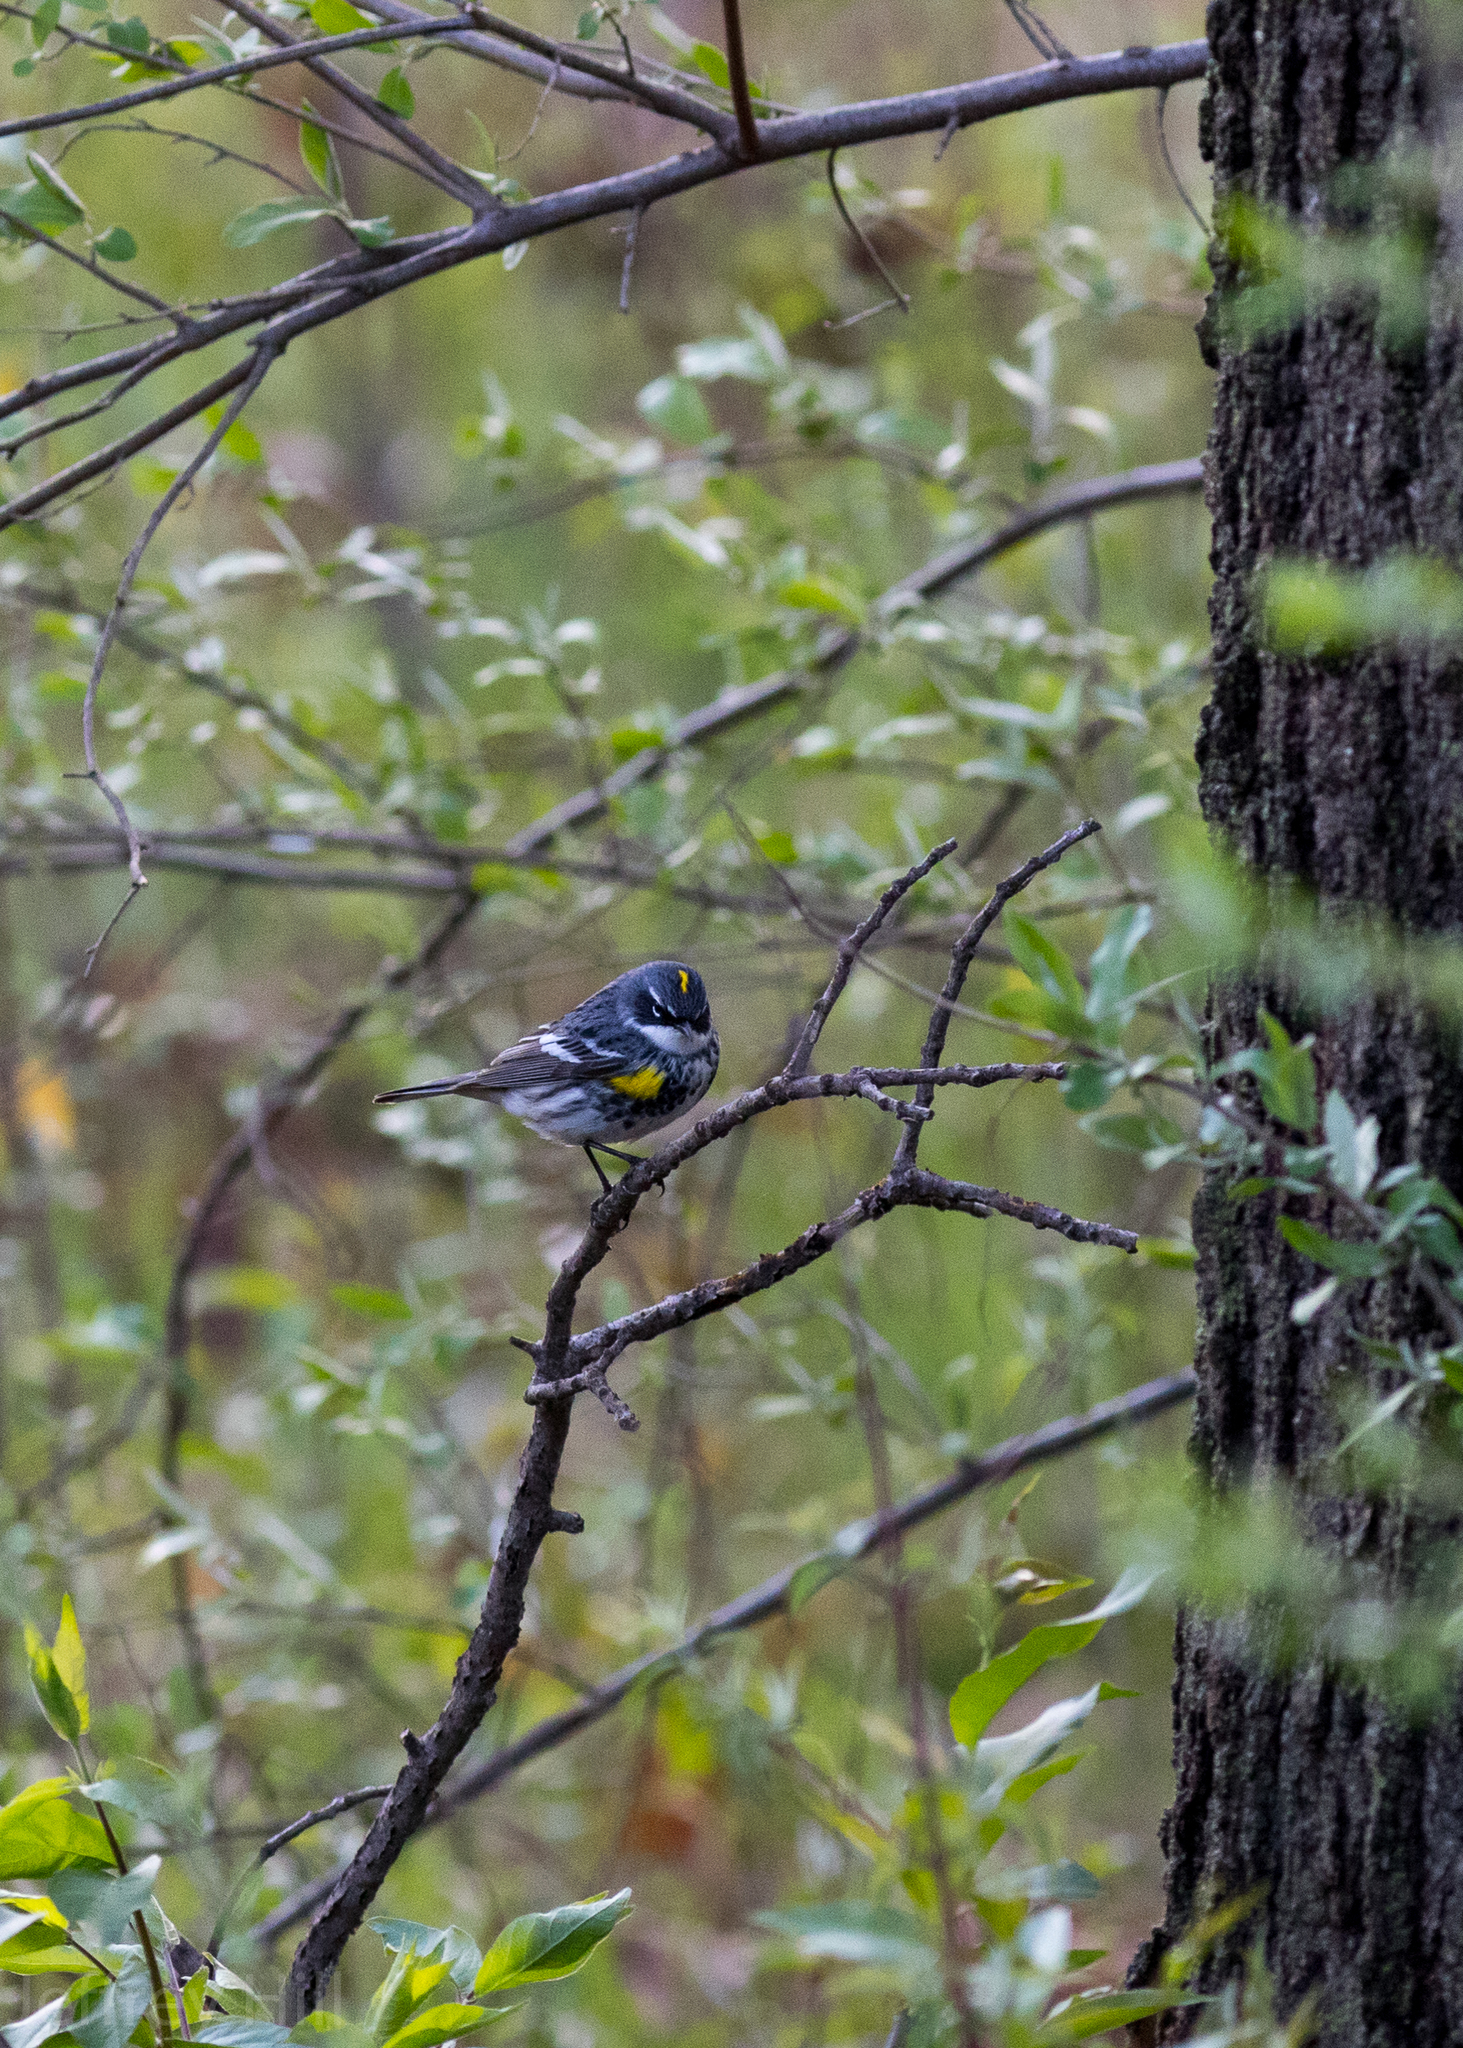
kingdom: Animalia
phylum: Chordata
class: Aves
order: Passeriformes
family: Parulidae
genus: Setophaga
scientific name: Setophaga coronata
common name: Myrtle warbler
